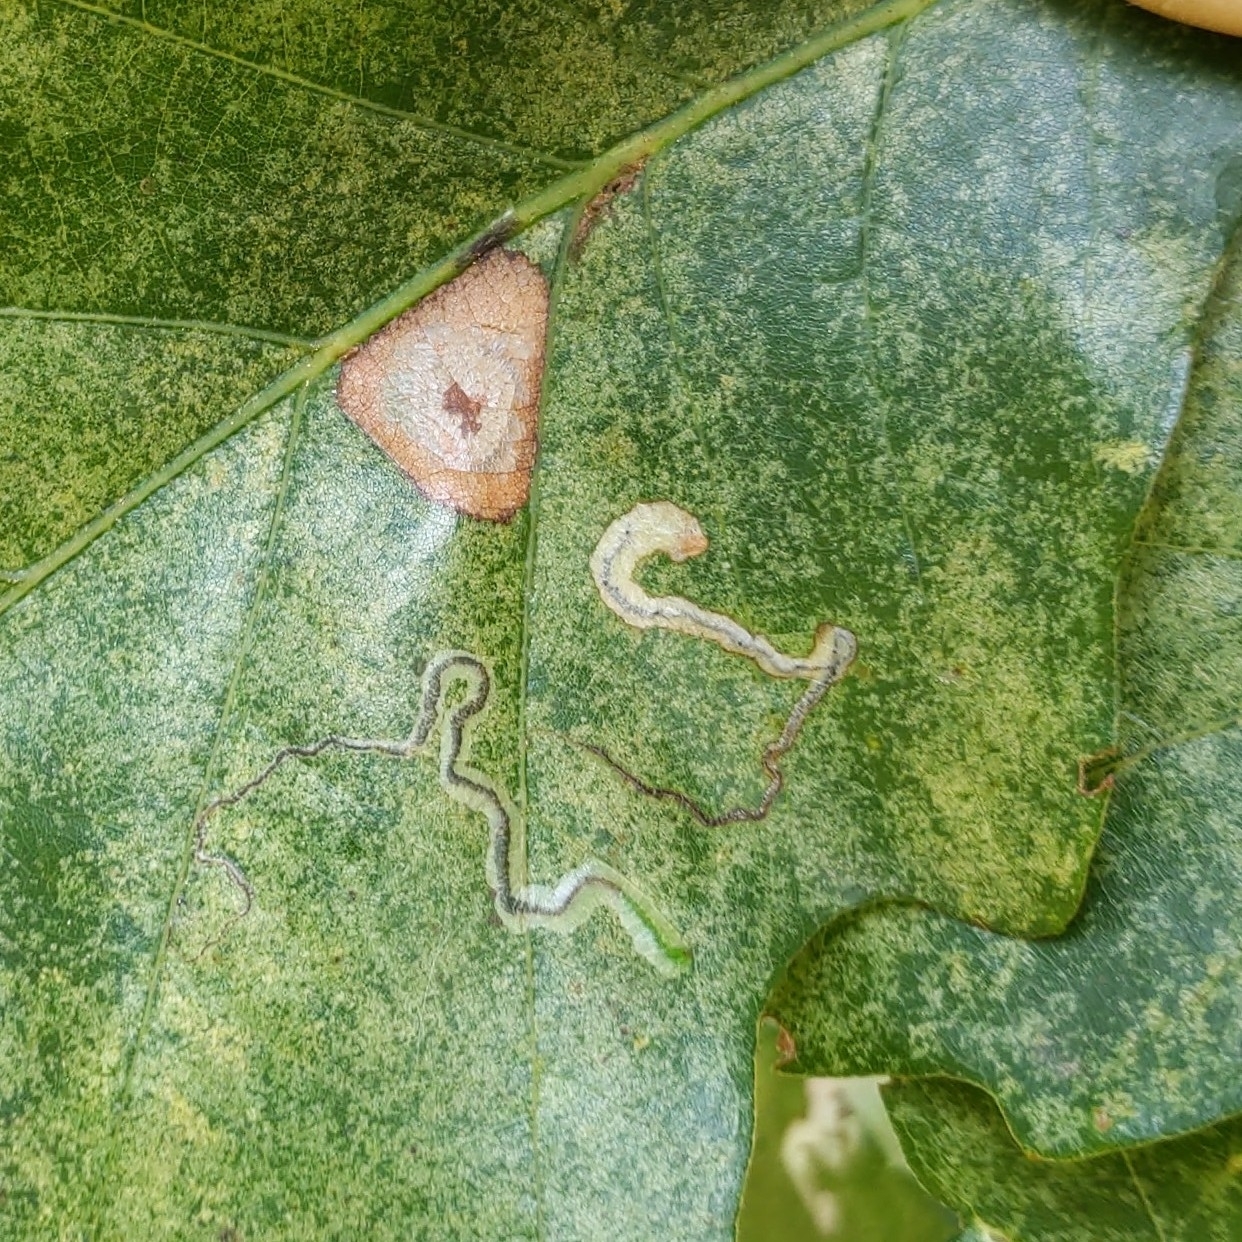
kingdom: Animalia
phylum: Arthropoda
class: Insecta
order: Lepidoptera
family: Nepticulidae
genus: Stigmella
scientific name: Stigmella saginella
